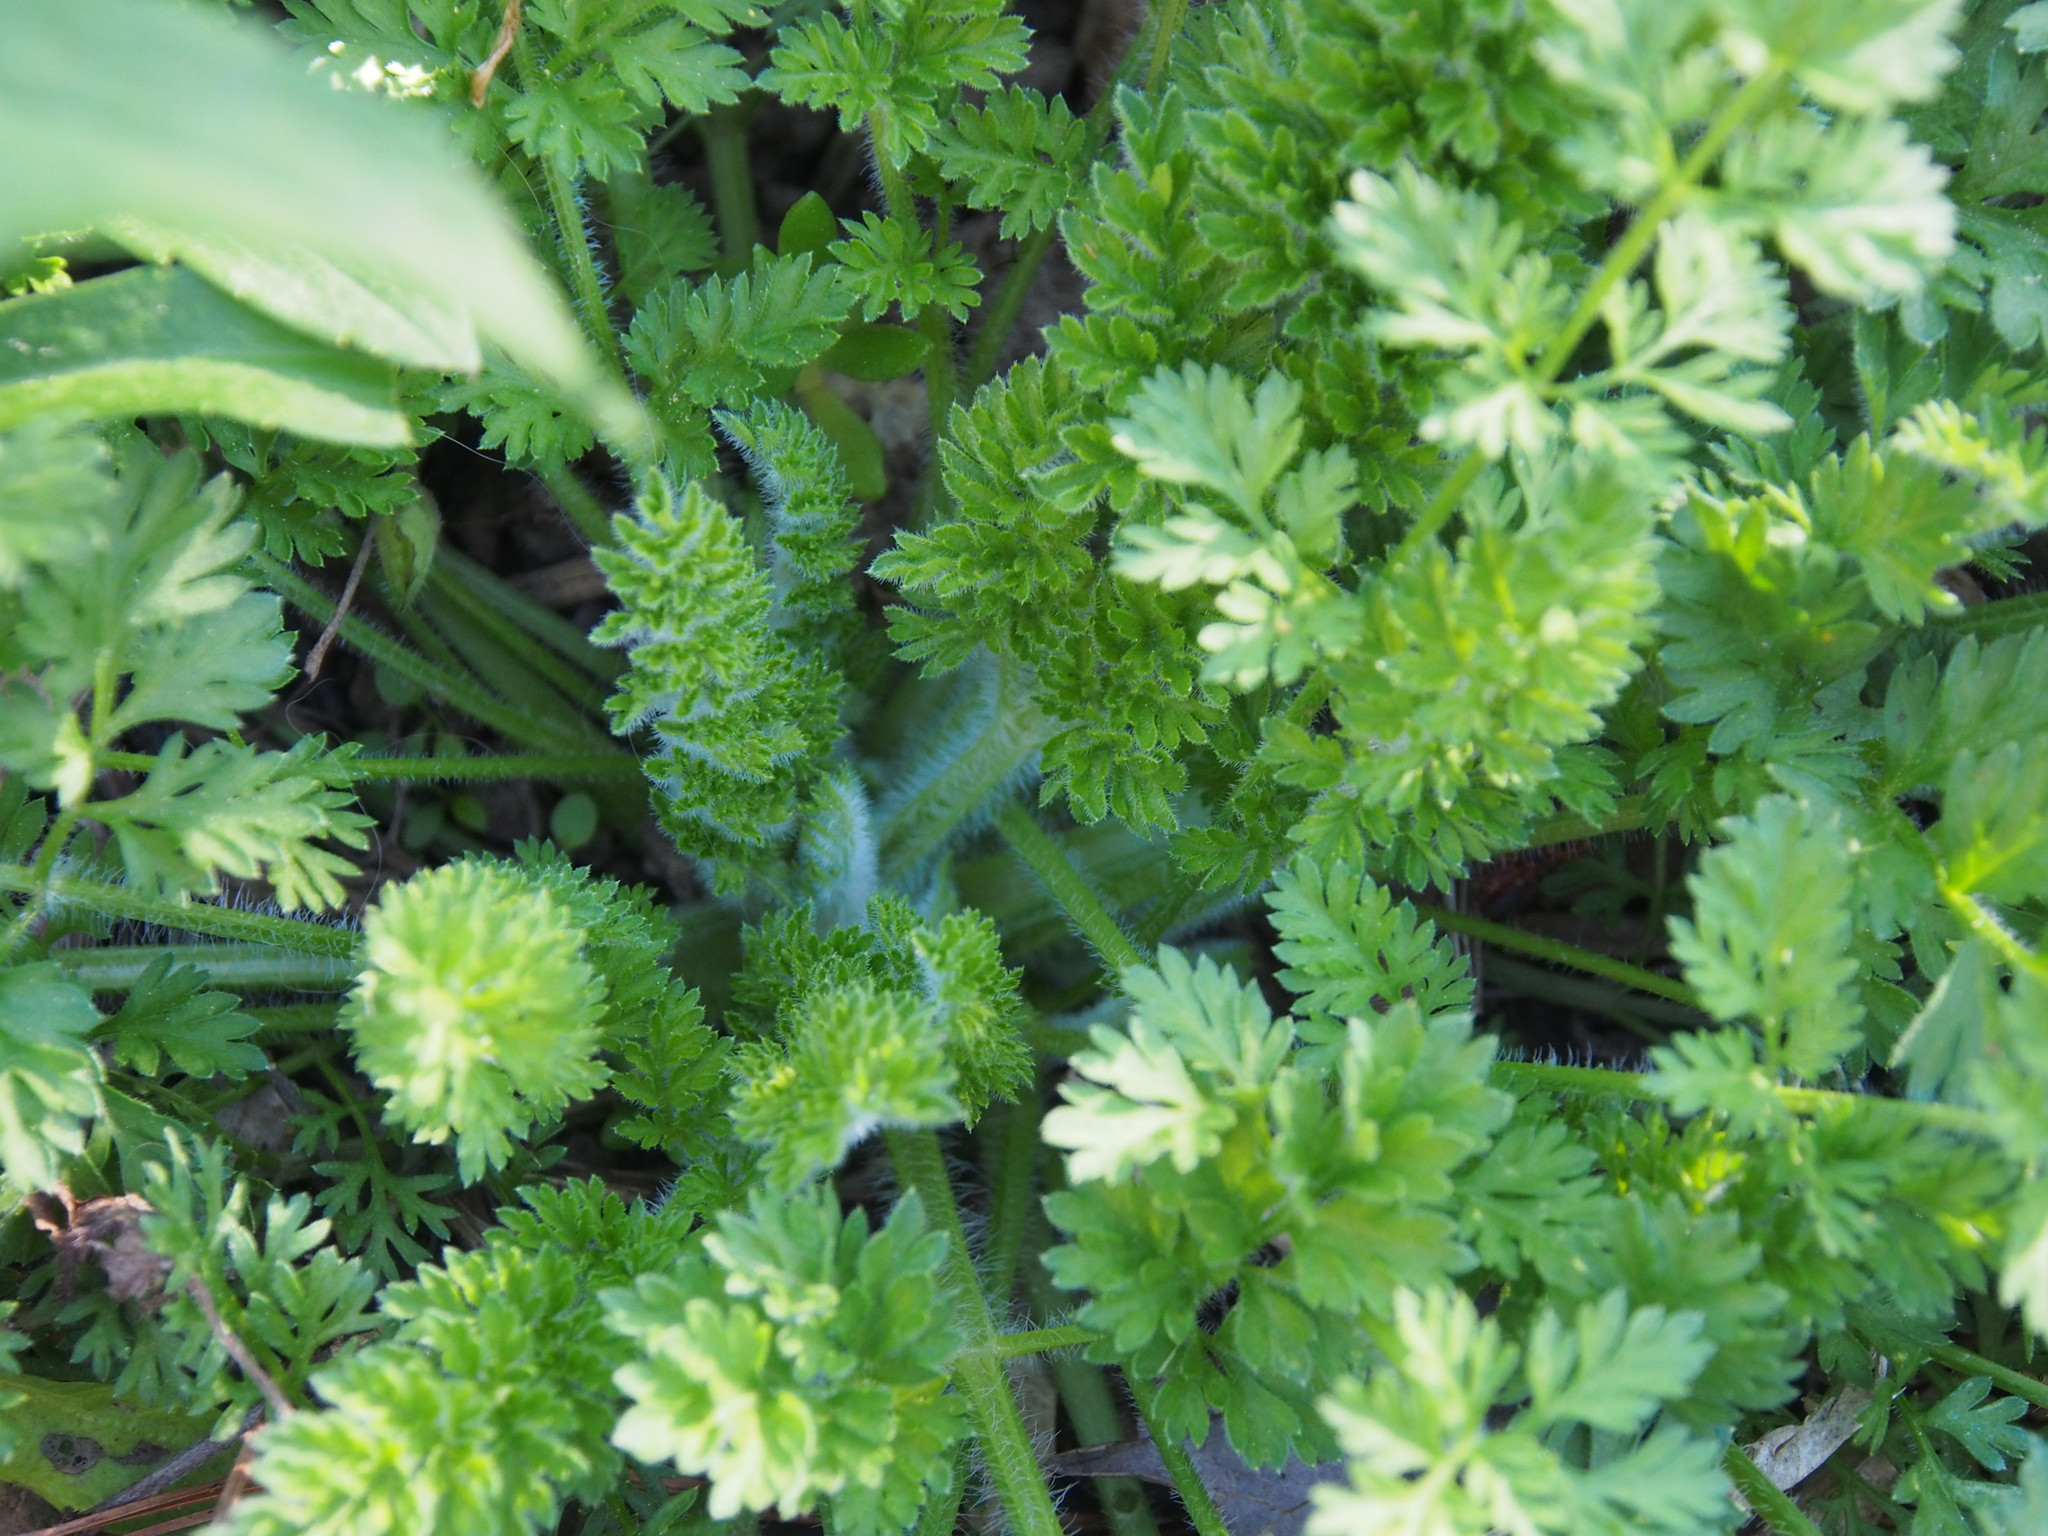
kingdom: Plantae
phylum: Tracheophyta
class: Magnoliopsida
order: Apiales
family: Apiaceae
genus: Daucus
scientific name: Daucus carota
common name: Wild carrot
